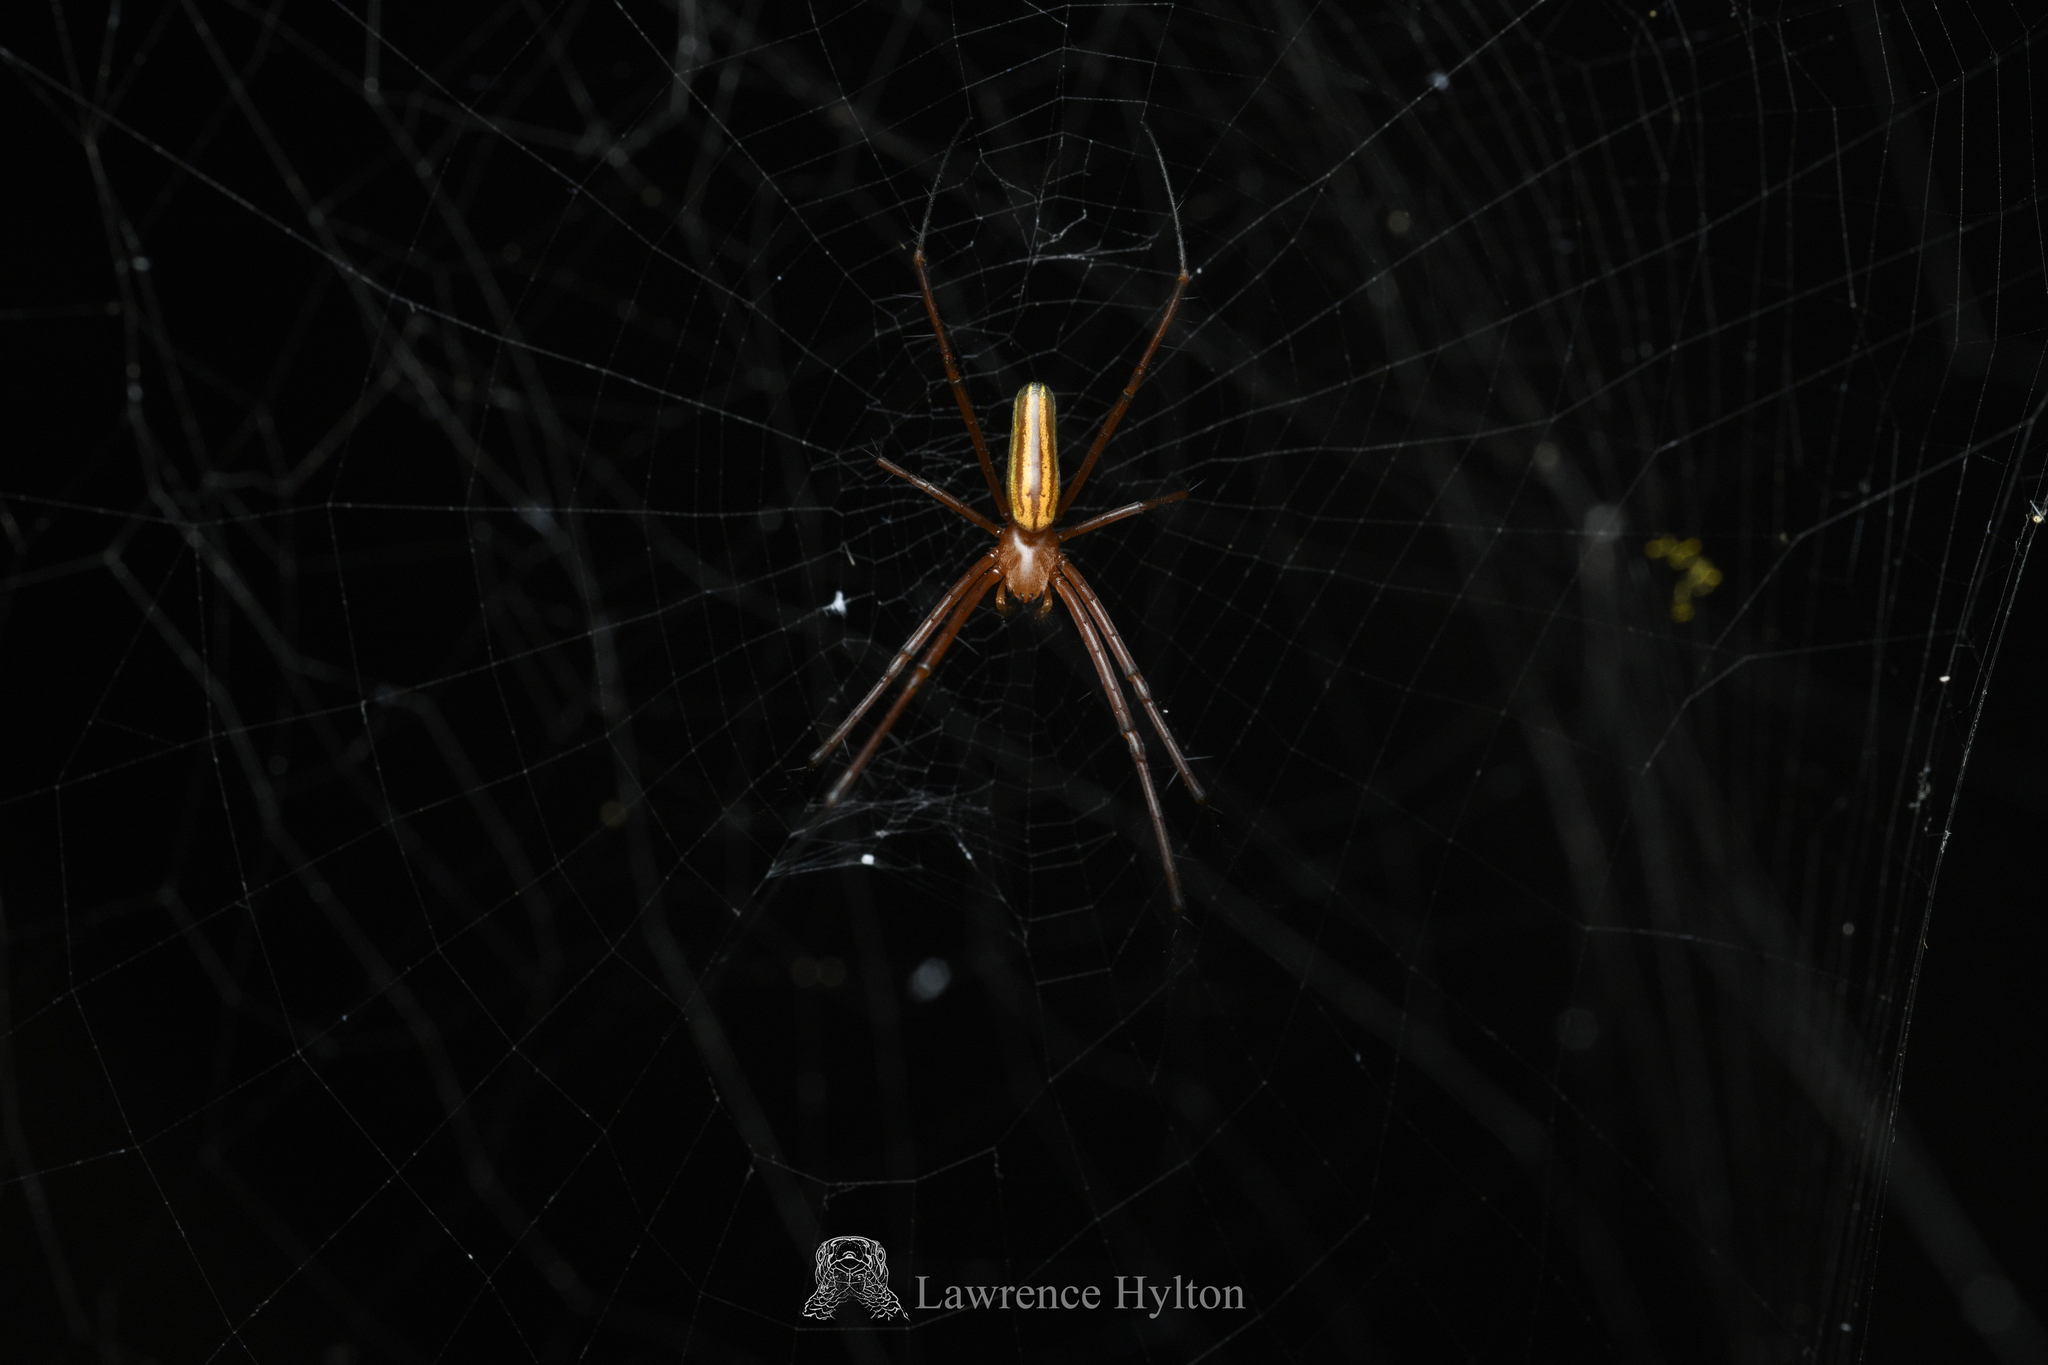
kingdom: Animalia
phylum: Arthropoda
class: Arachnida
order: Araneae
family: Araneidae
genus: Nephila
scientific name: Nephila pilipes
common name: Giant golden orb weaver
